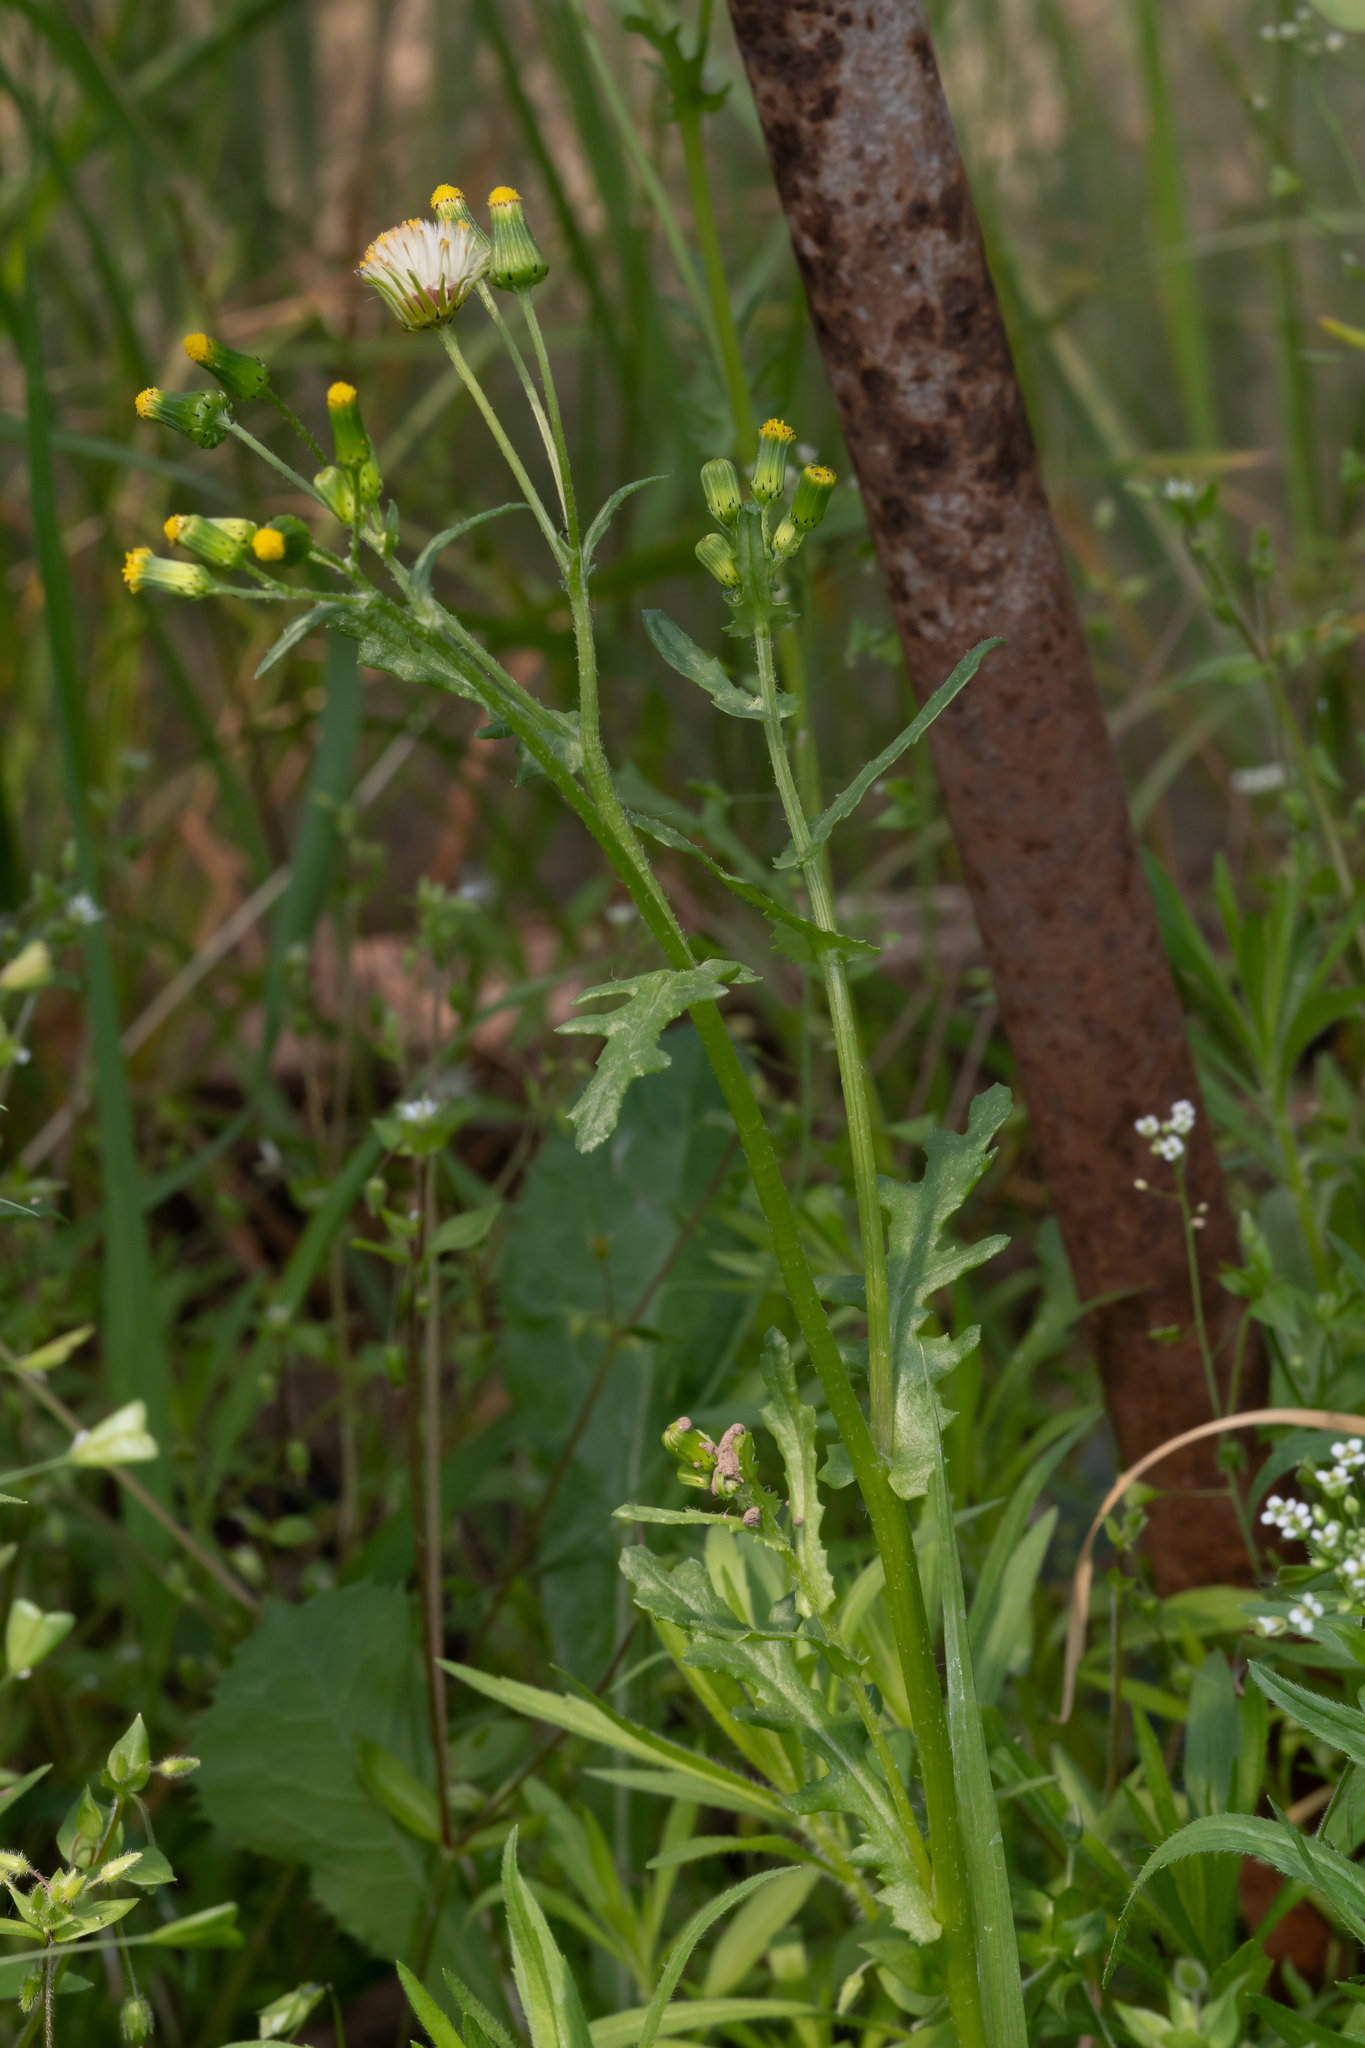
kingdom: Plantae
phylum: Tracheophyta
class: Magnoliopsida
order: Asterales
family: Asteraceae
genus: Senecio
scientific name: Senecio vulgaris
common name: Old-man-in-the-spring
